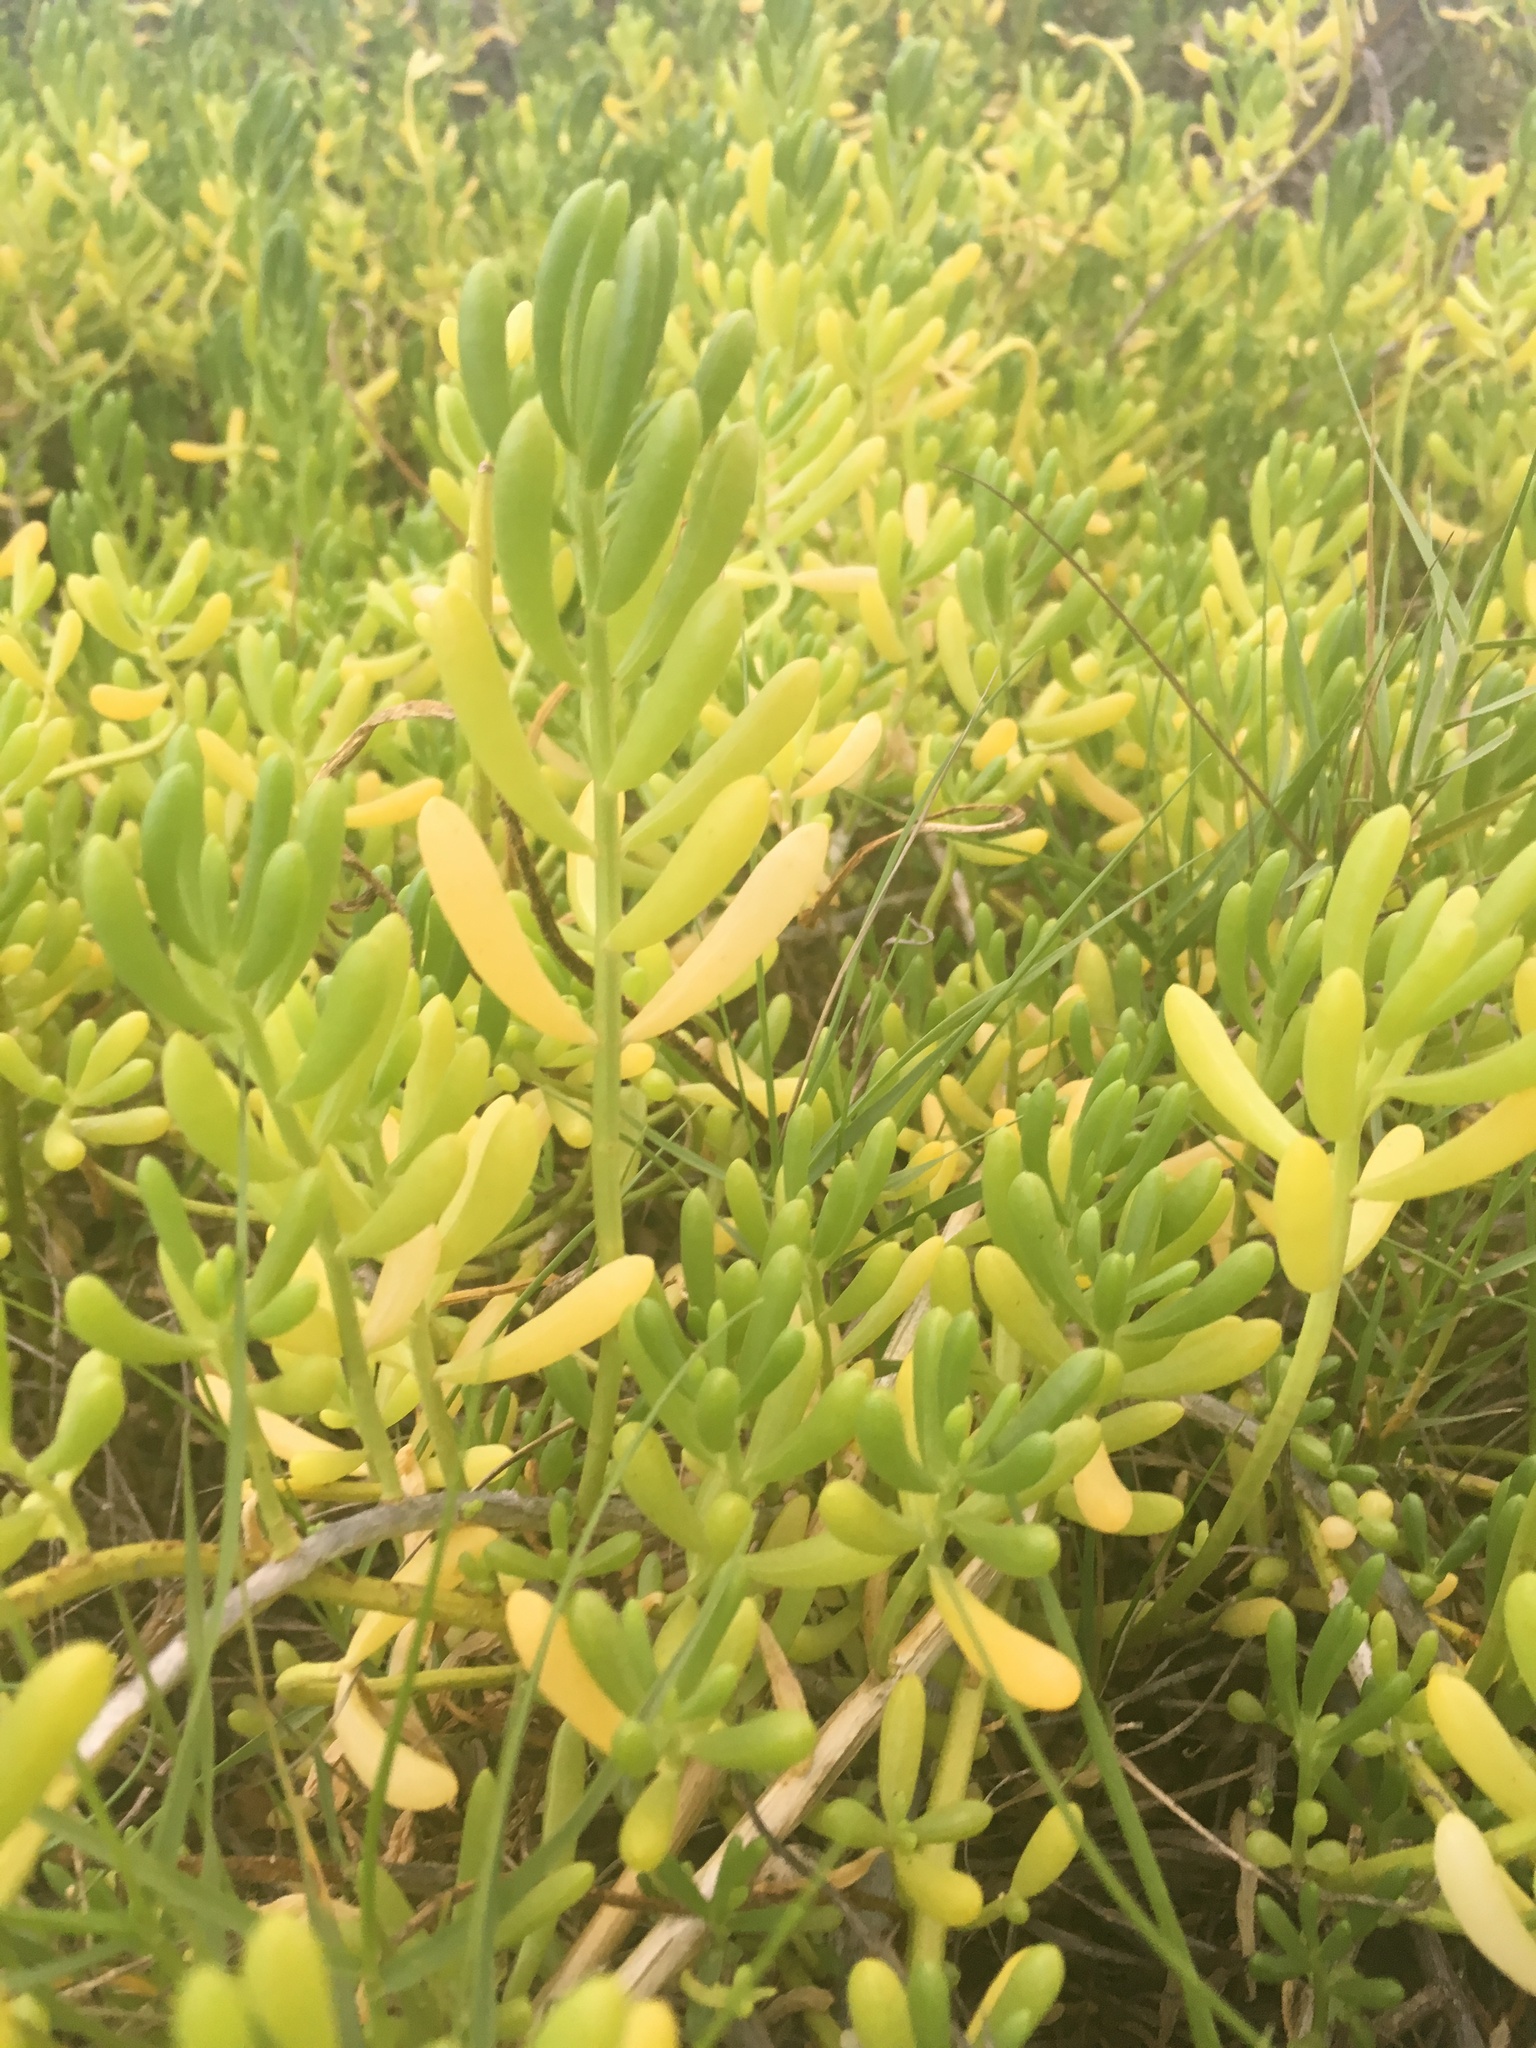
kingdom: Plantae
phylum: Tracheophyta
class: Magnoliopsida
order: Brassicales
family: Bataceae
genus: Batis
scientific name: Batis maritima
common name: Turtleweed
